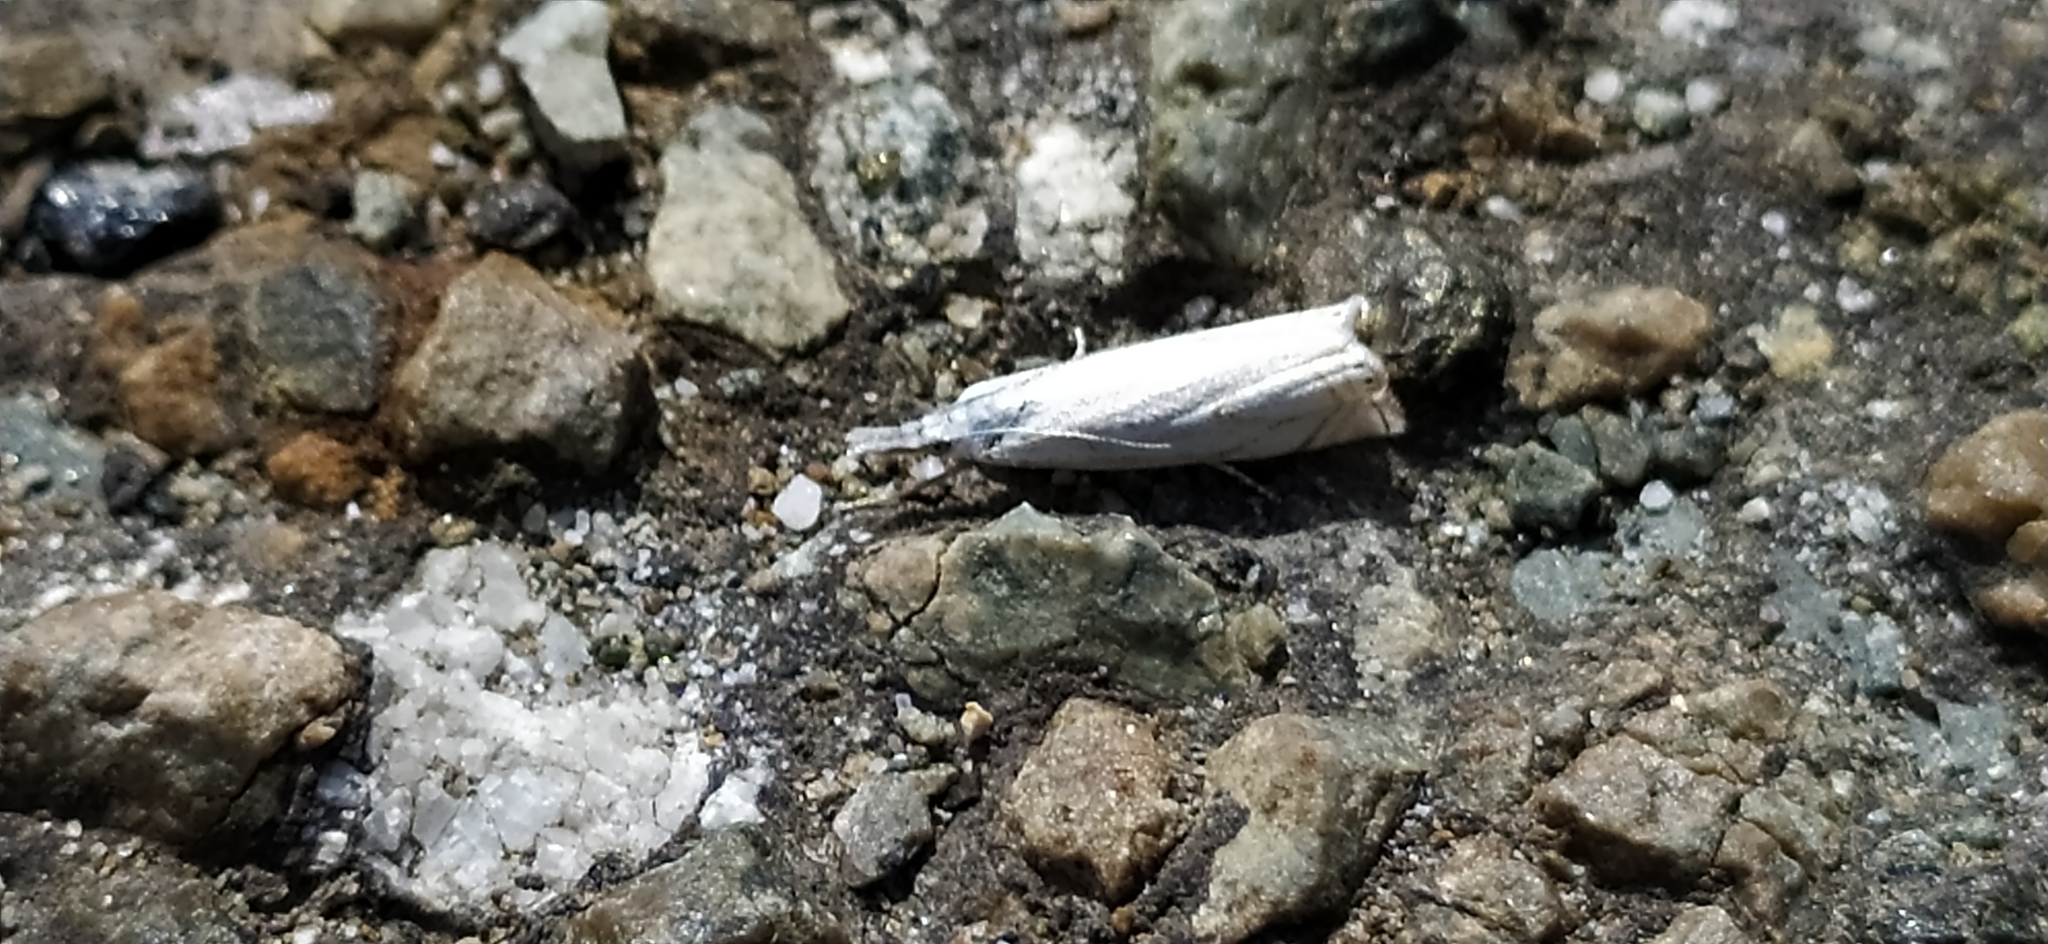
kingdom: Animalia
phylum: Arthropoda
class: Insecta
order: Lepidoptera
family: Crambidae
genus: Crambus
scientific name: Crambus nemorella
